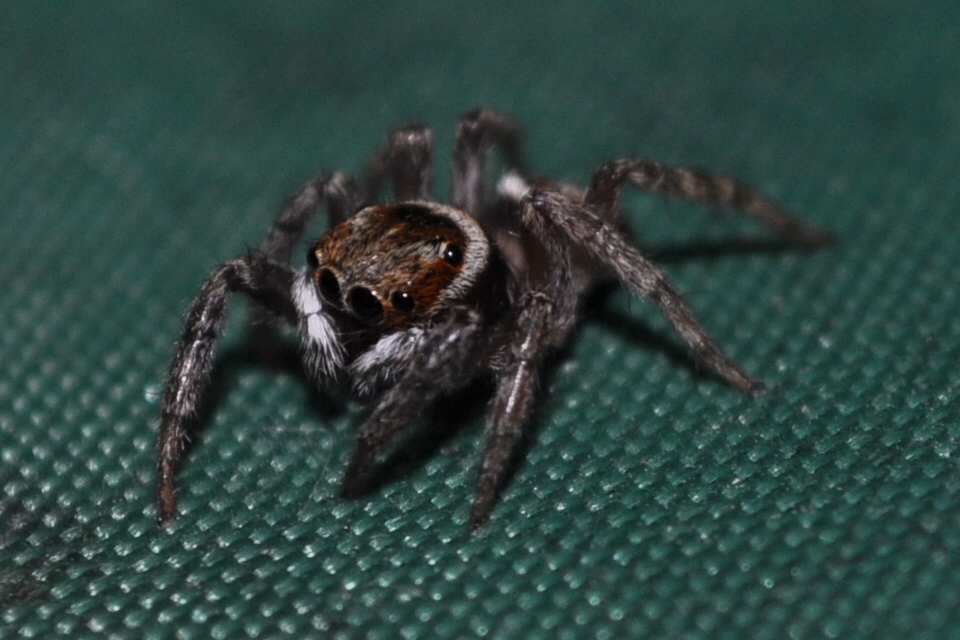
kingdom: Animalia
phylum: Arthropoda
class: Arachnida
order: Araneae
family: Salticidae
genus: Hasarius
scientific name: Hasarius adansoni
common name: Jumping spider
